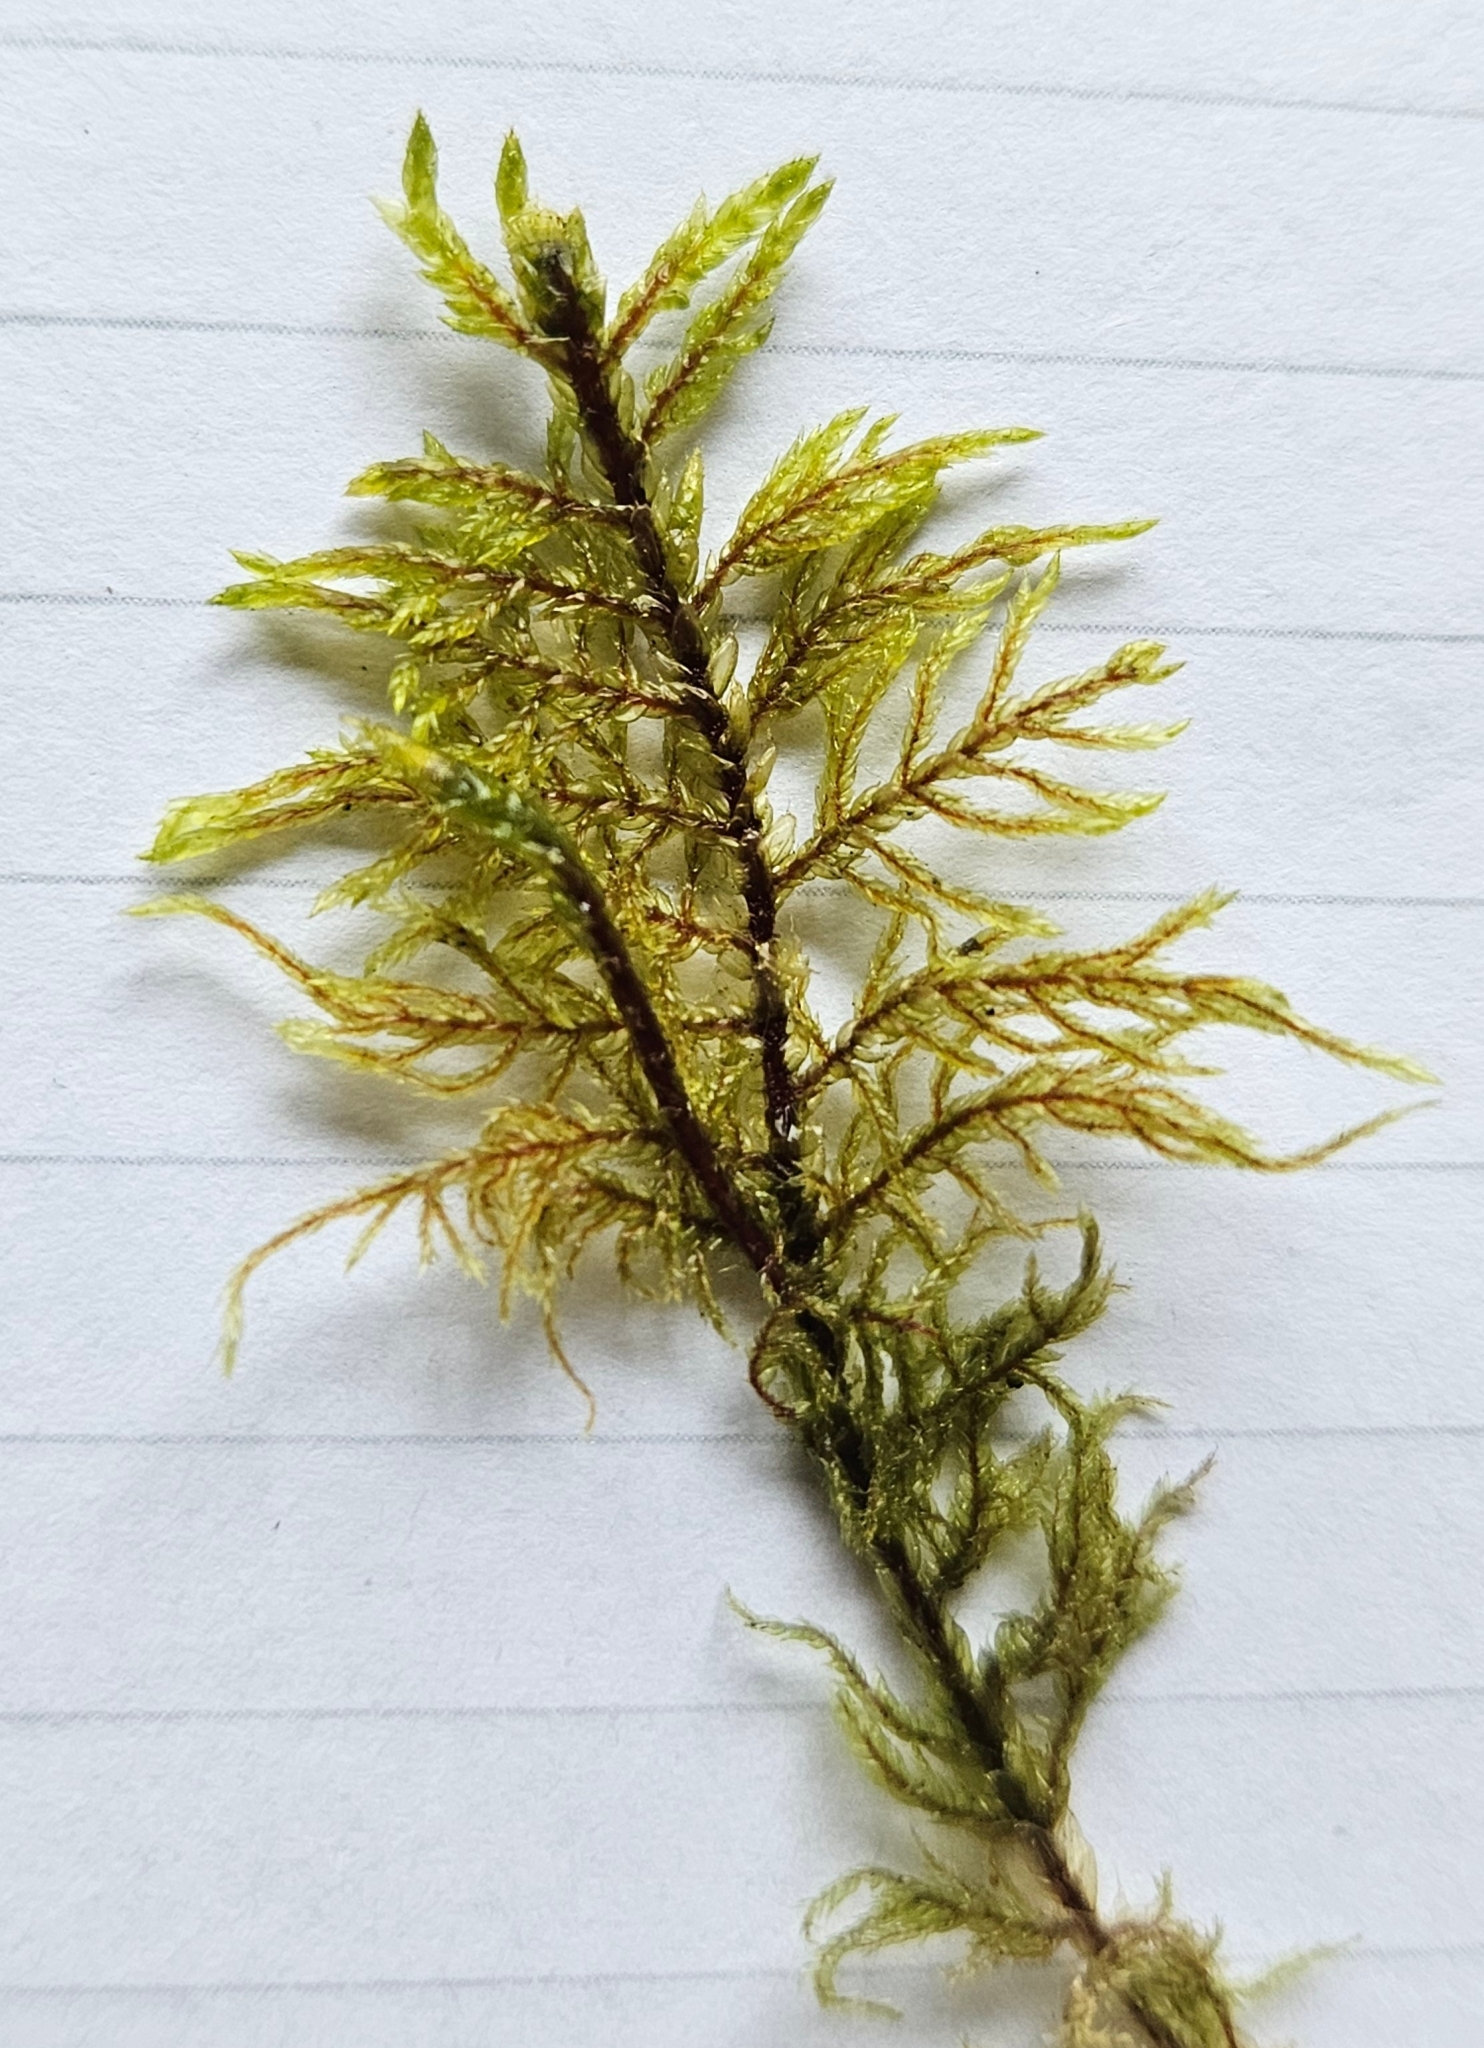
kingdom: Plantae
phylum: Bryophyta
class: Bryopsida
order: Hypnales
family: Hylocomiaceae
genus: Hylocomium
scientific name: Hylocomium splendens
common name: Stairstep moss
